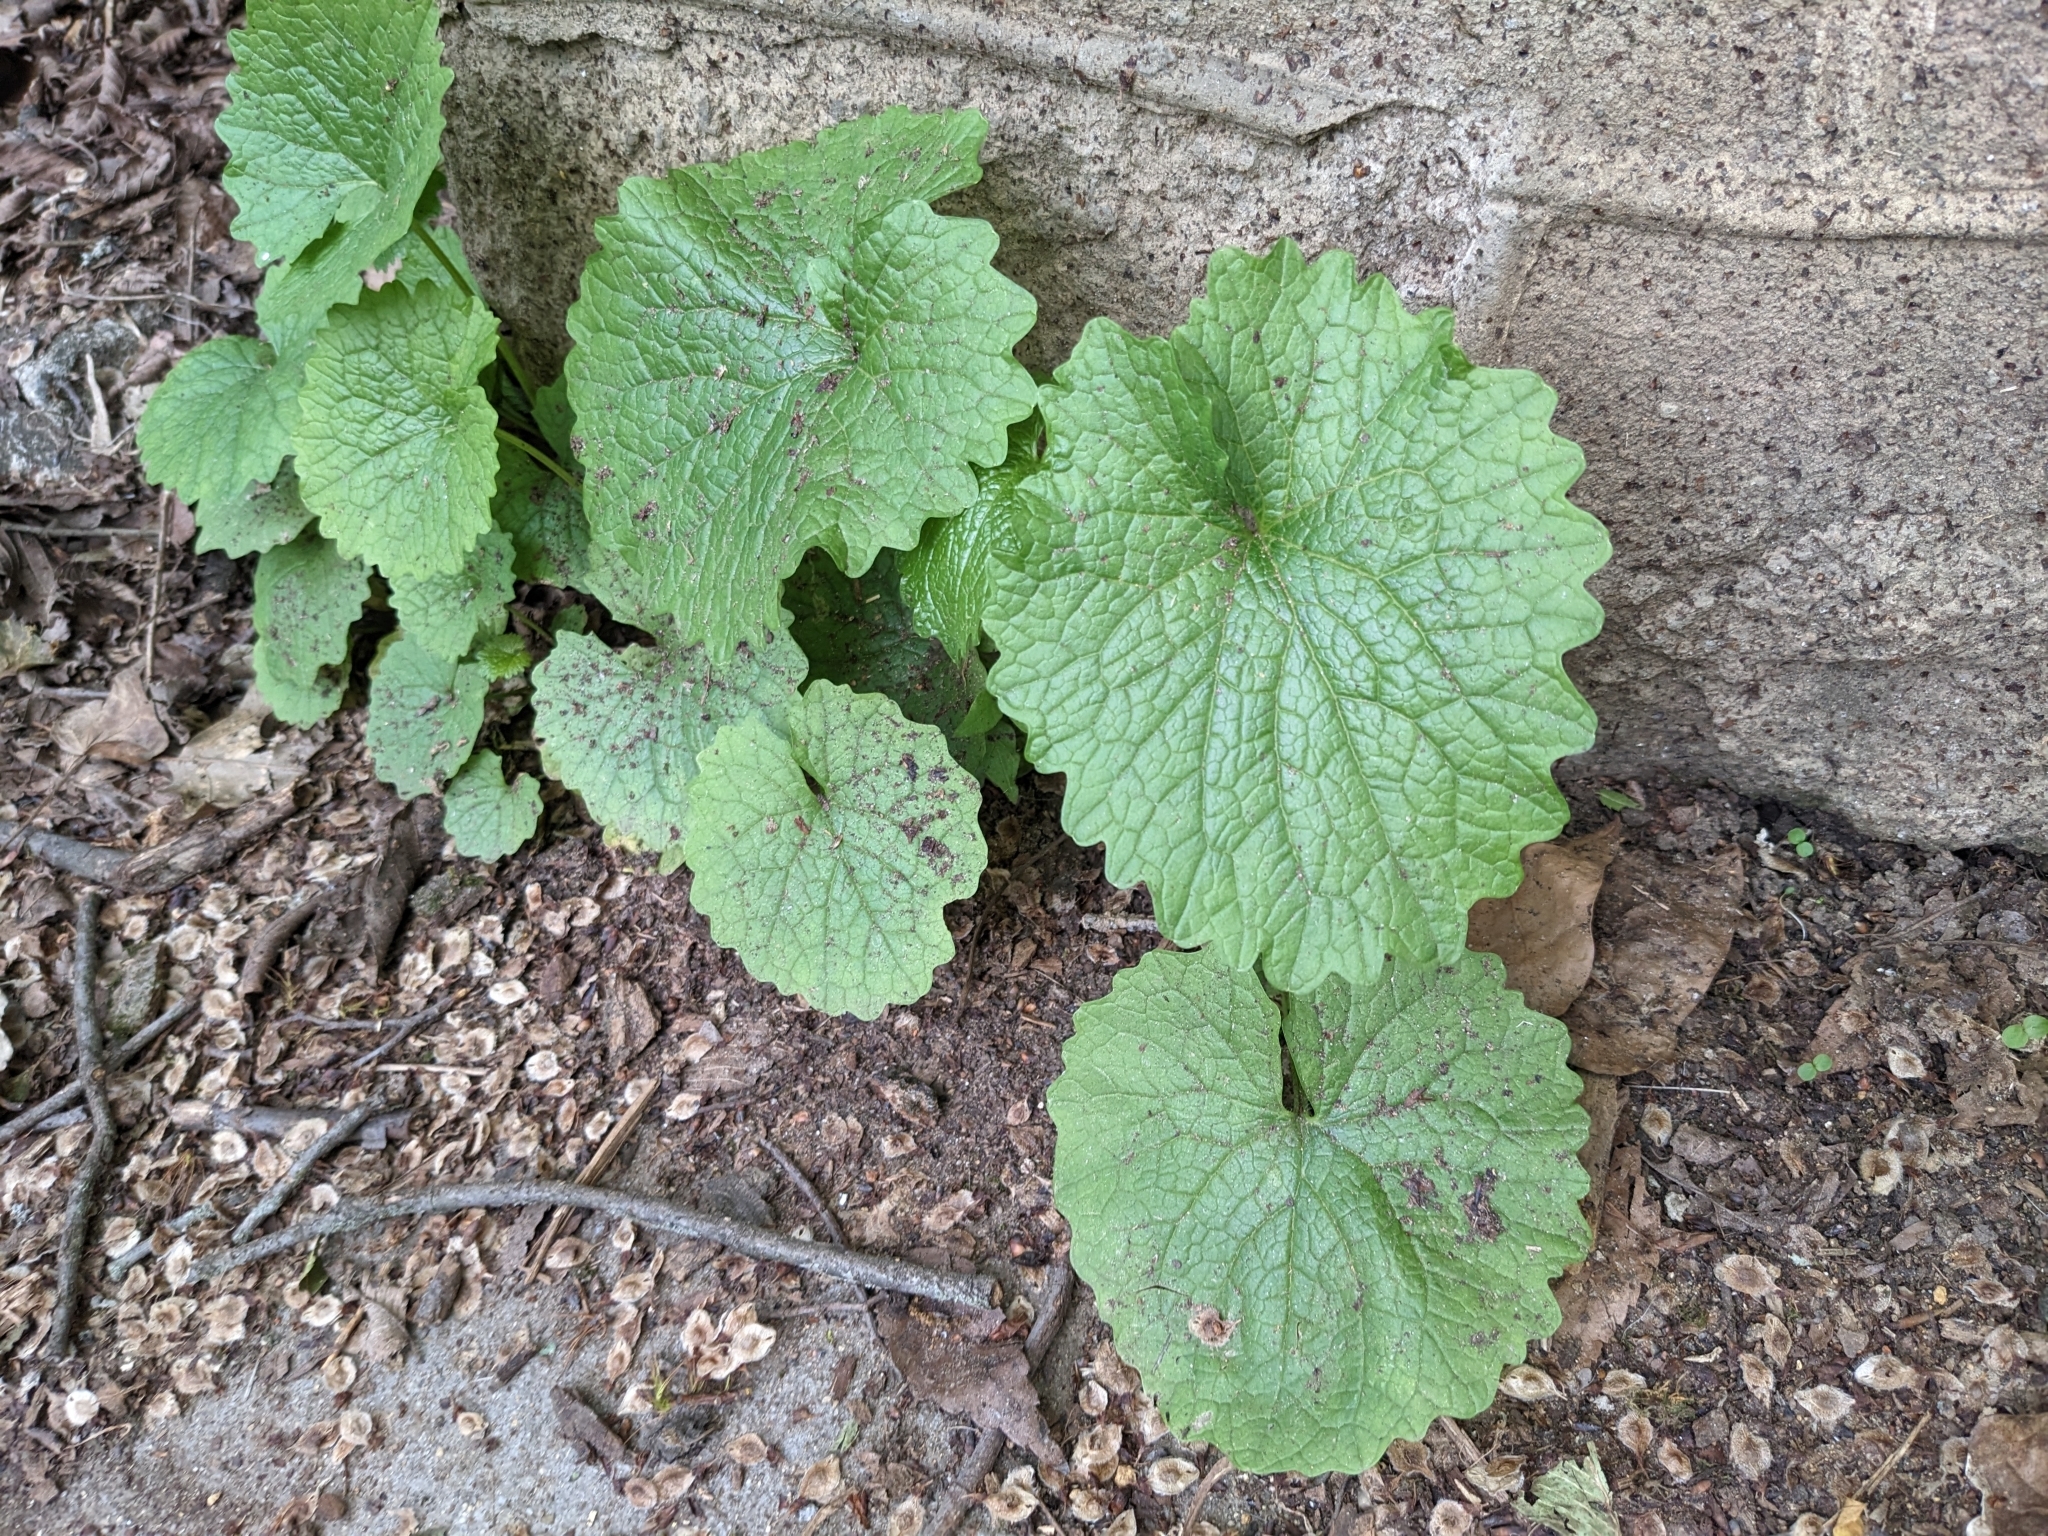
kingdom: Plantae
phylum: Tracheophyta
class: Magnoliopsida
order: Brassicales
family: Brassicaceae
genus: Alliaria
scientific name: Alliaria petiolata
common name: Garlic mustard
